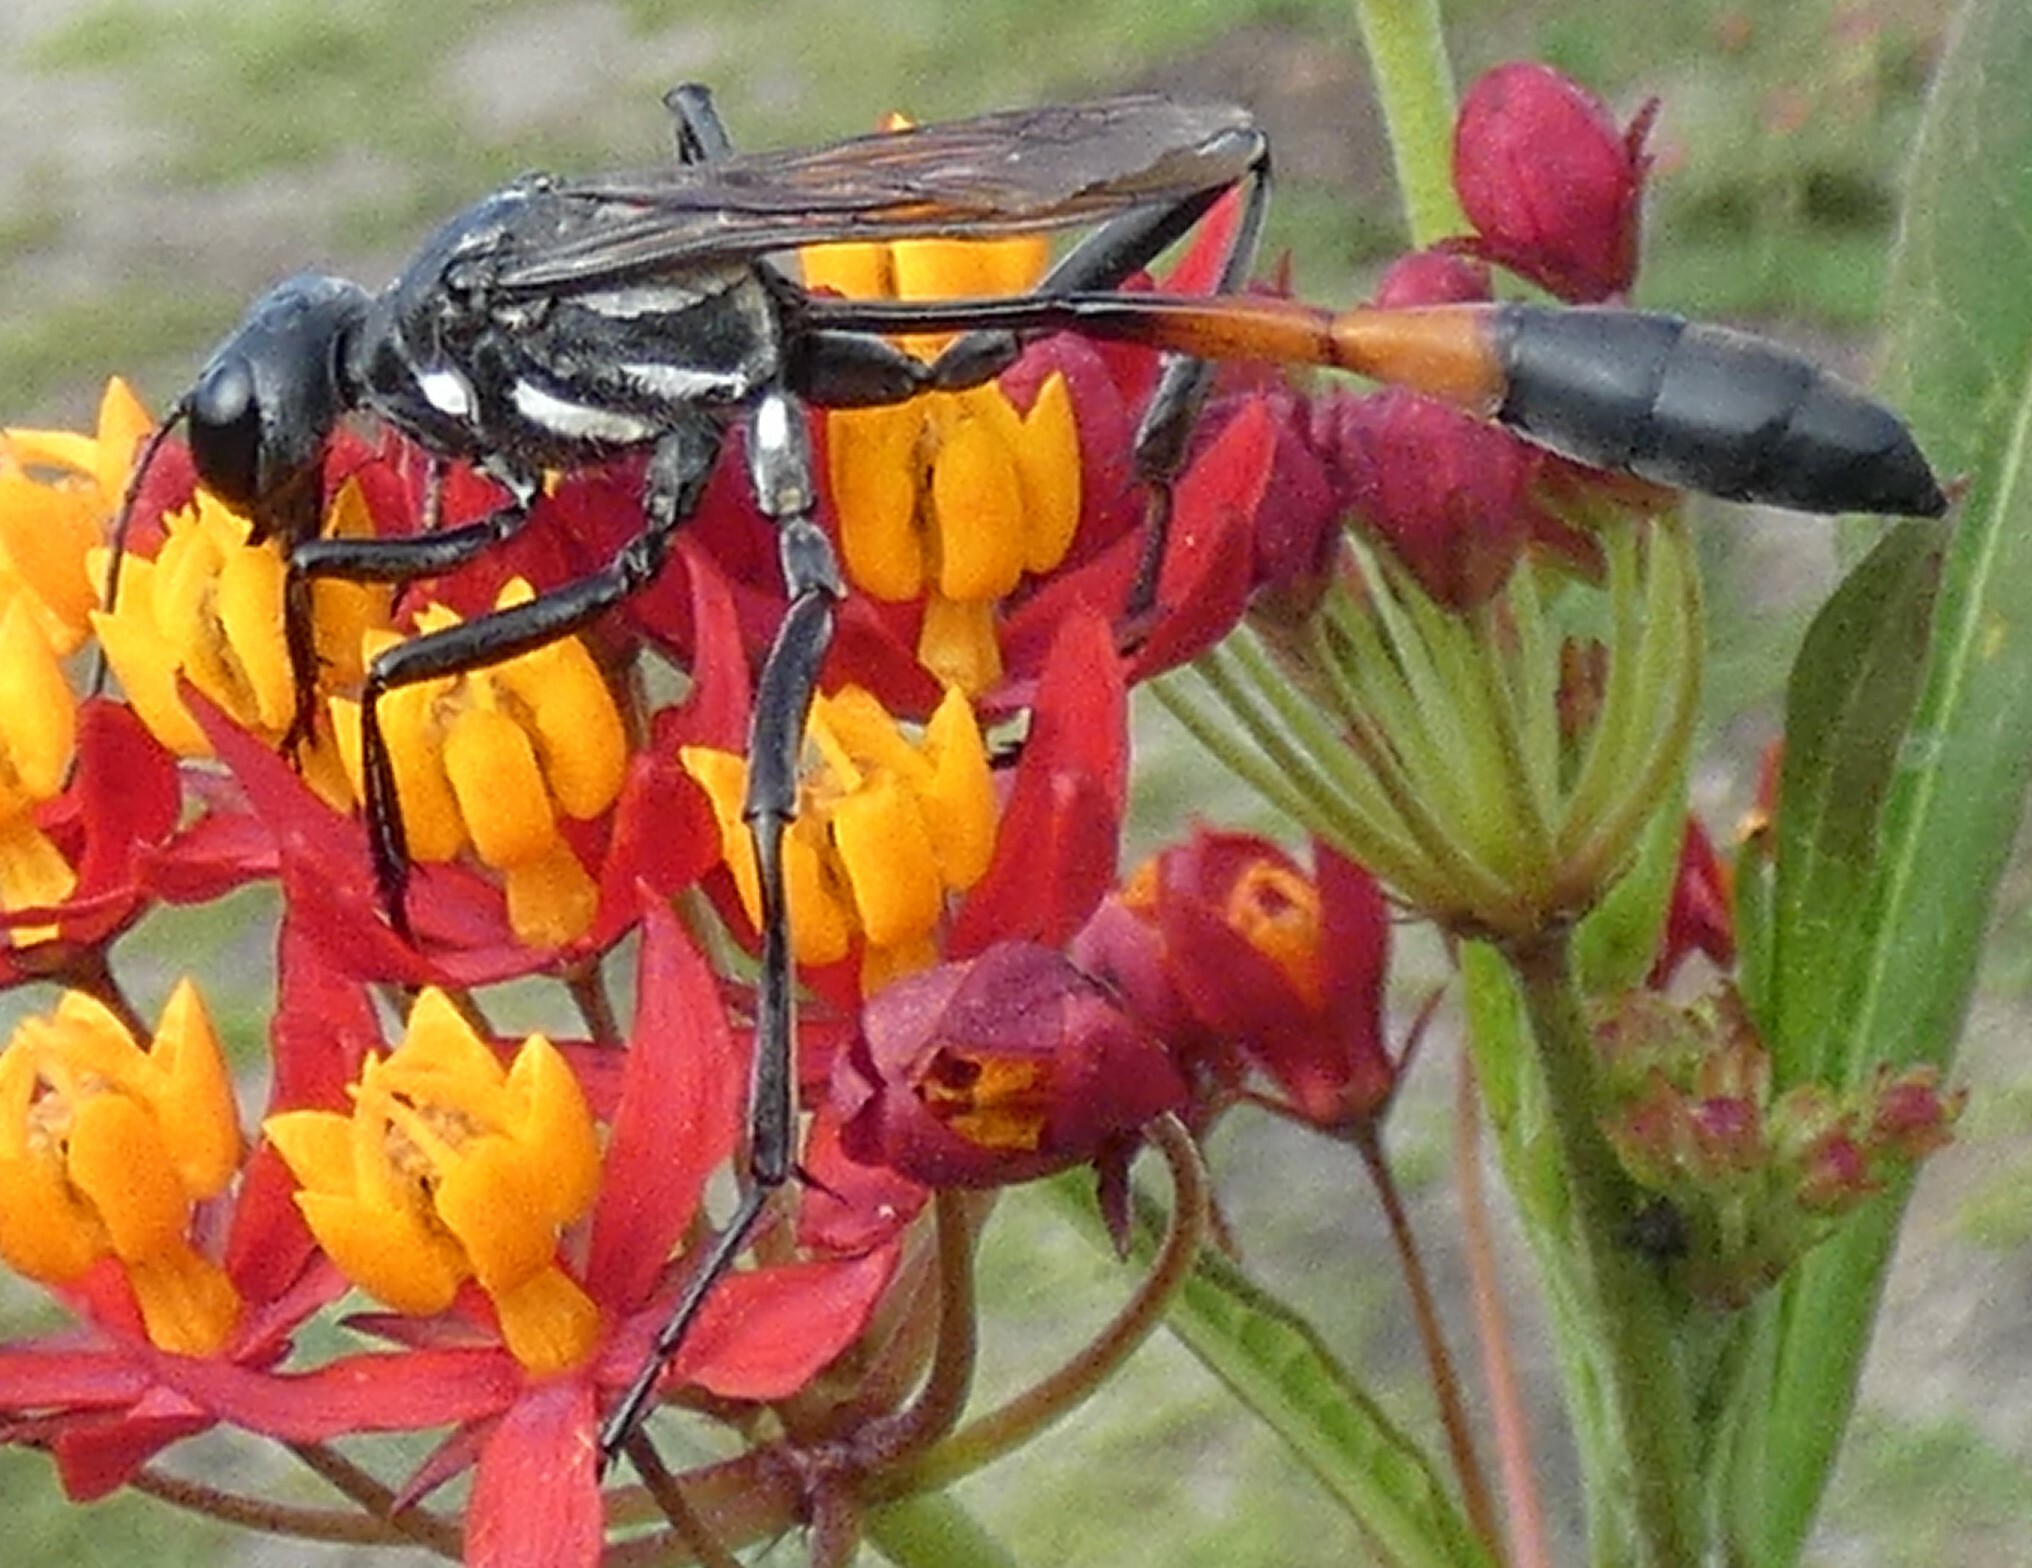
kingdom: Animalia
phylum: Arthropoda
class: Insecta
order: Hymenoptera
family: Sphecidae
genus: Ammophila
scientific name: Ammophila procera
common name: Common thread-waisted wasp
